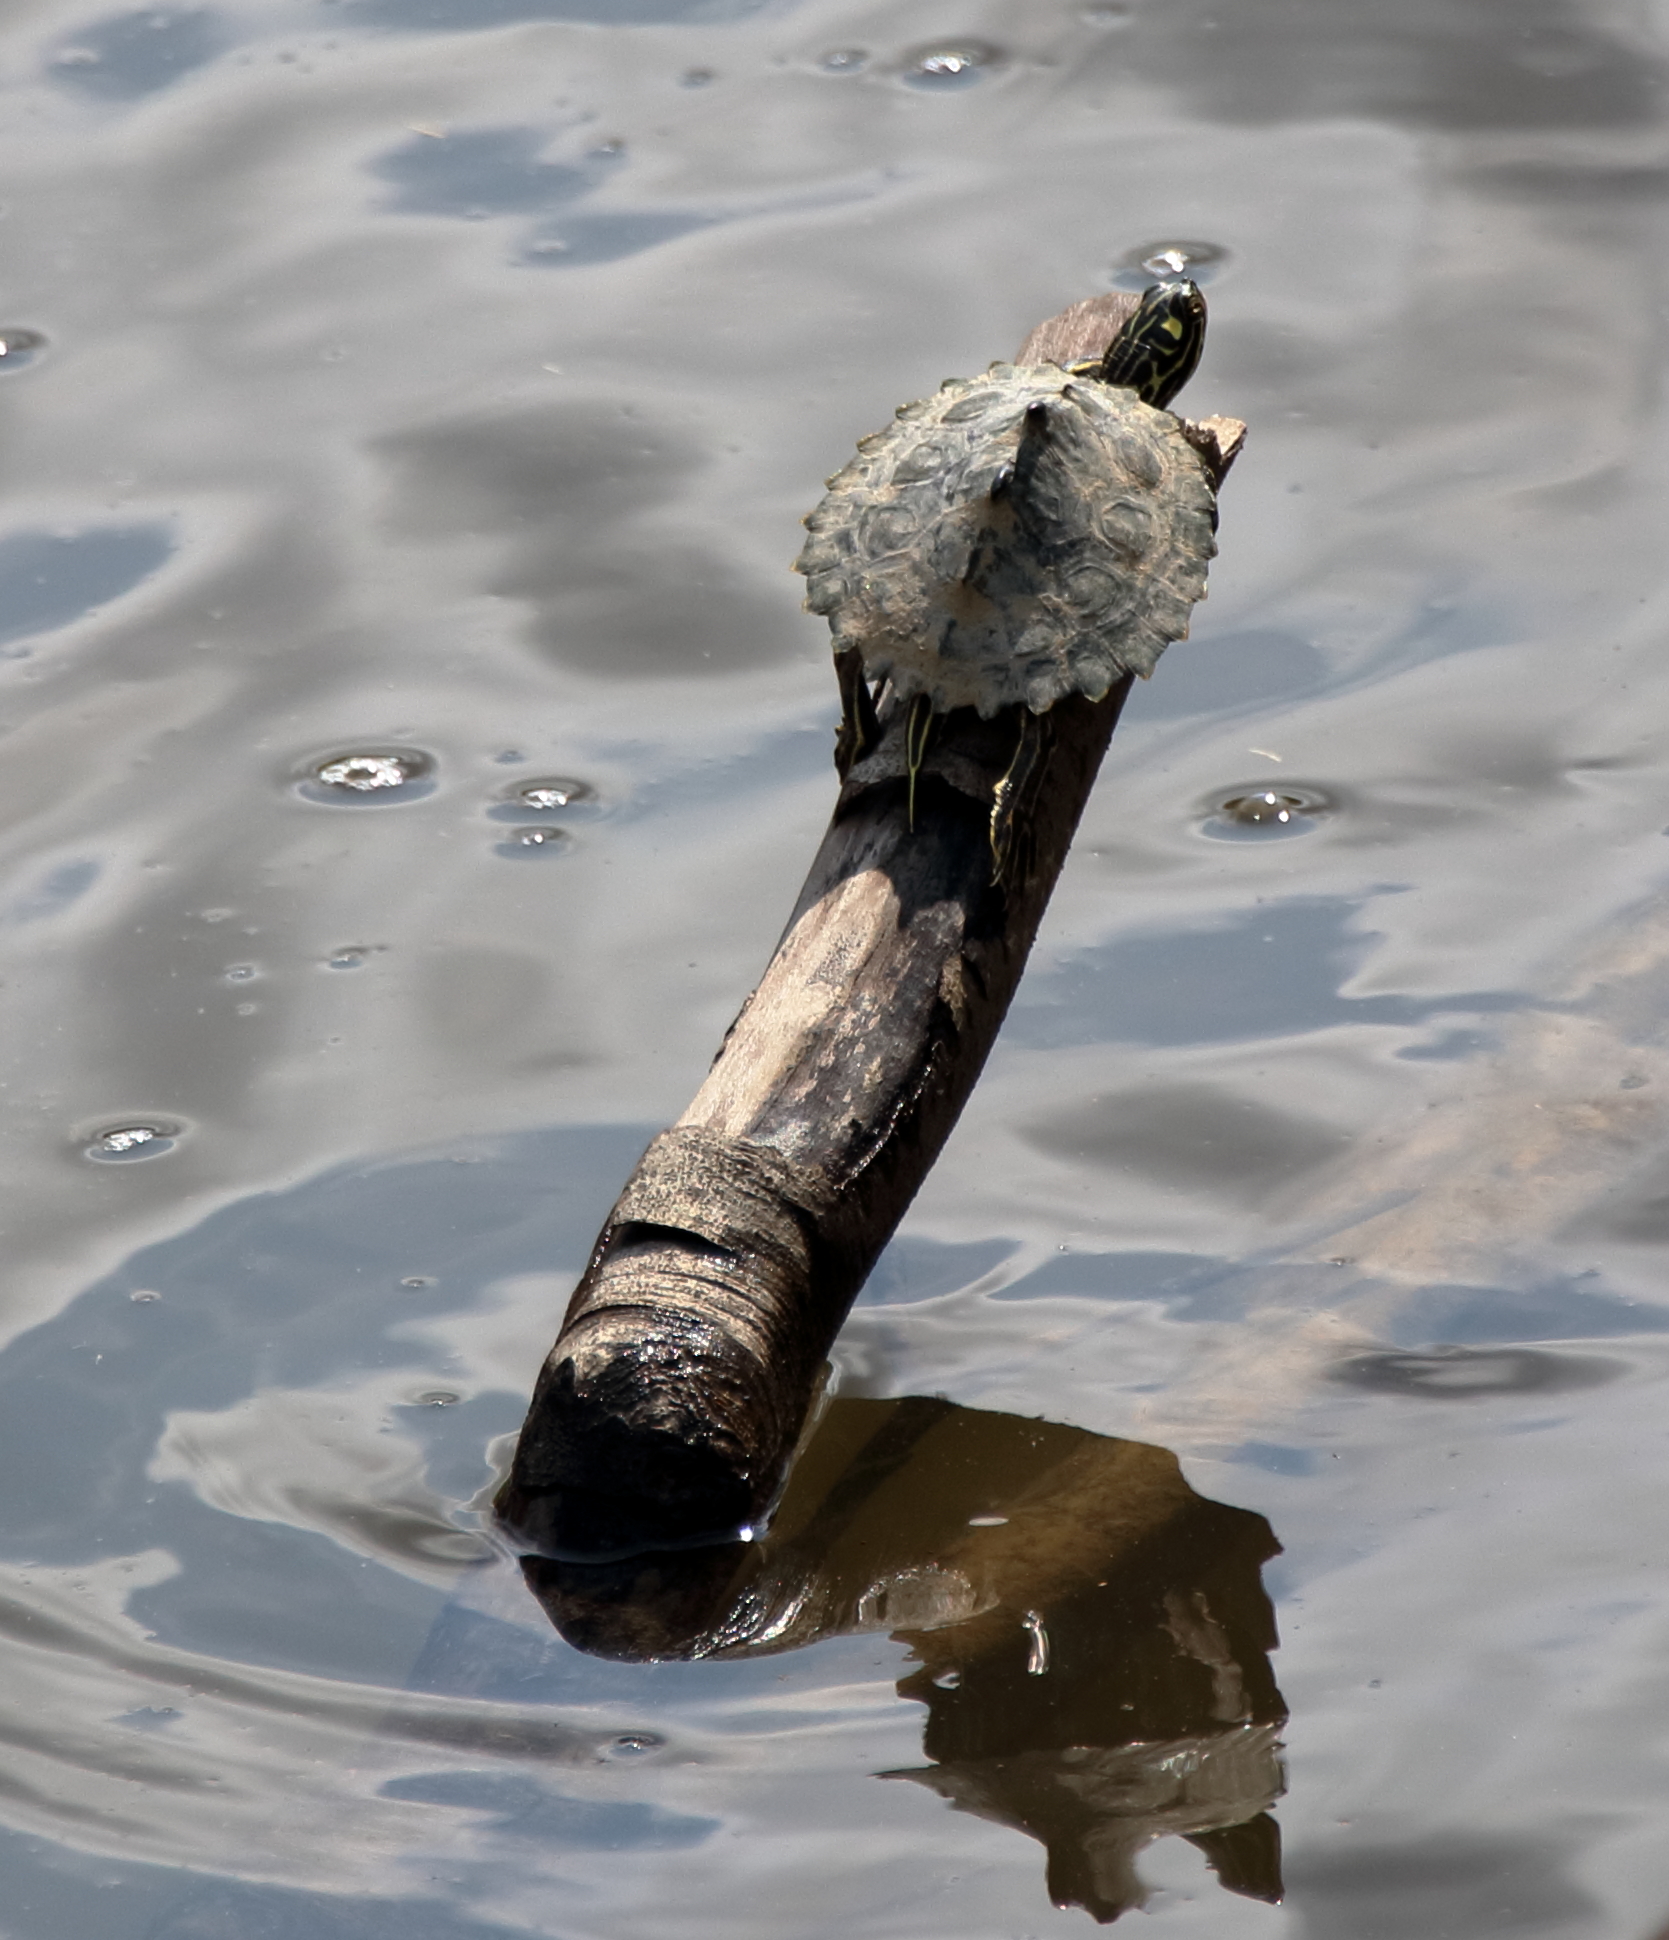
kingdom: Animalia
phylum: Chordata
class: Testudines
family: Emydidae
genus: Graptemys
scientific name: Graptemys oculifera
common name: Ringed map turtle
